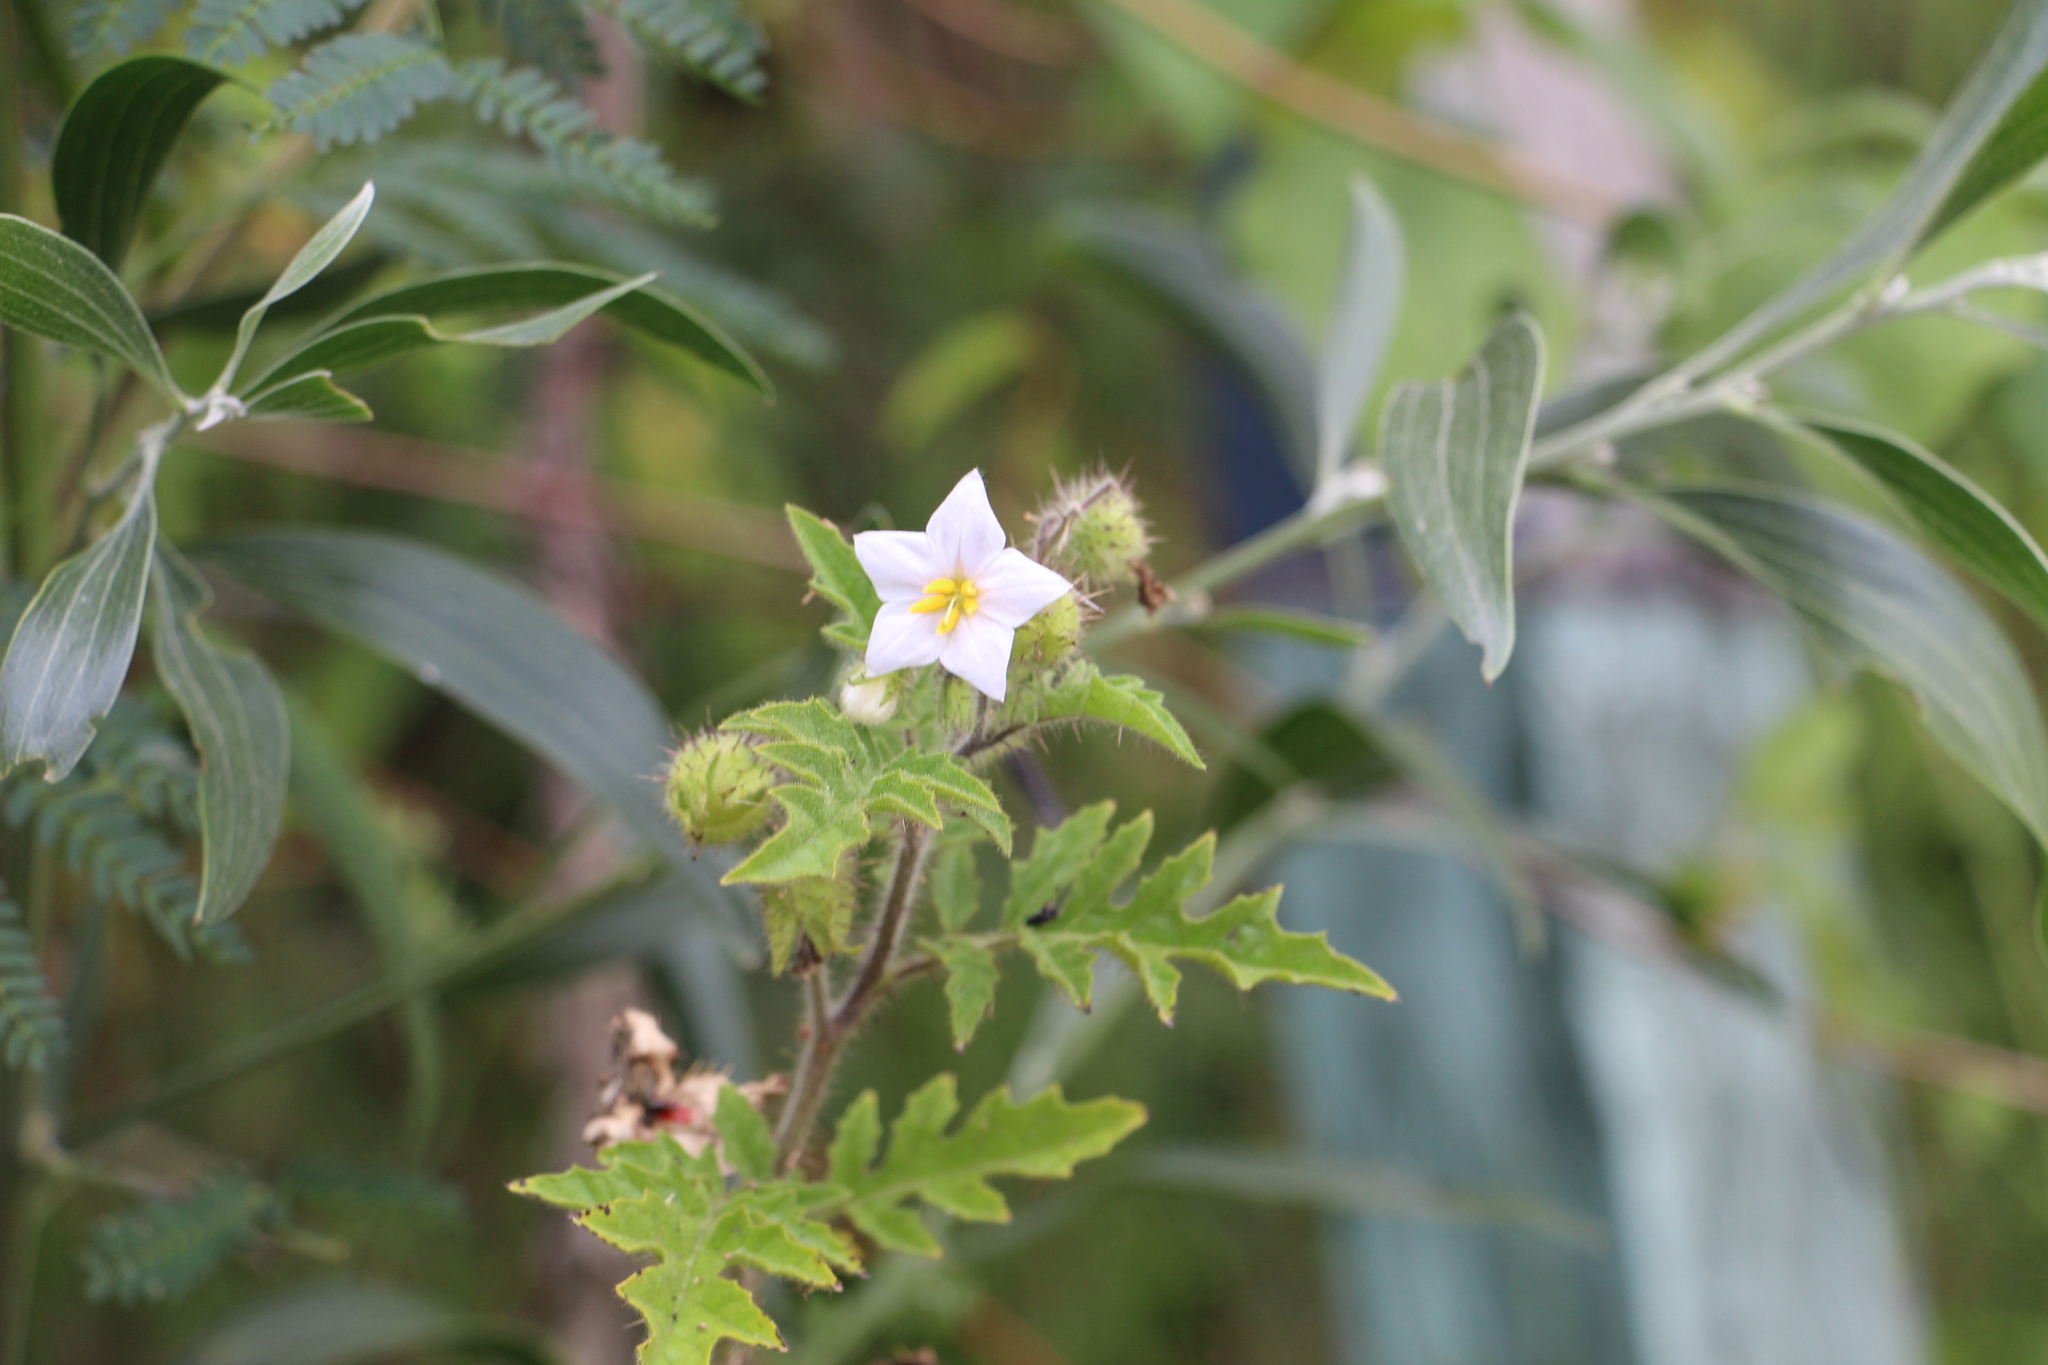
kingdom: Plantae
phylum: Tracheophyta
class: Magnoliopsida
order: Solanales
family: Solanaceae
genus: Solanum
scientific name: Solanum sisymbriifolium
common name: Red buffalo-bur
